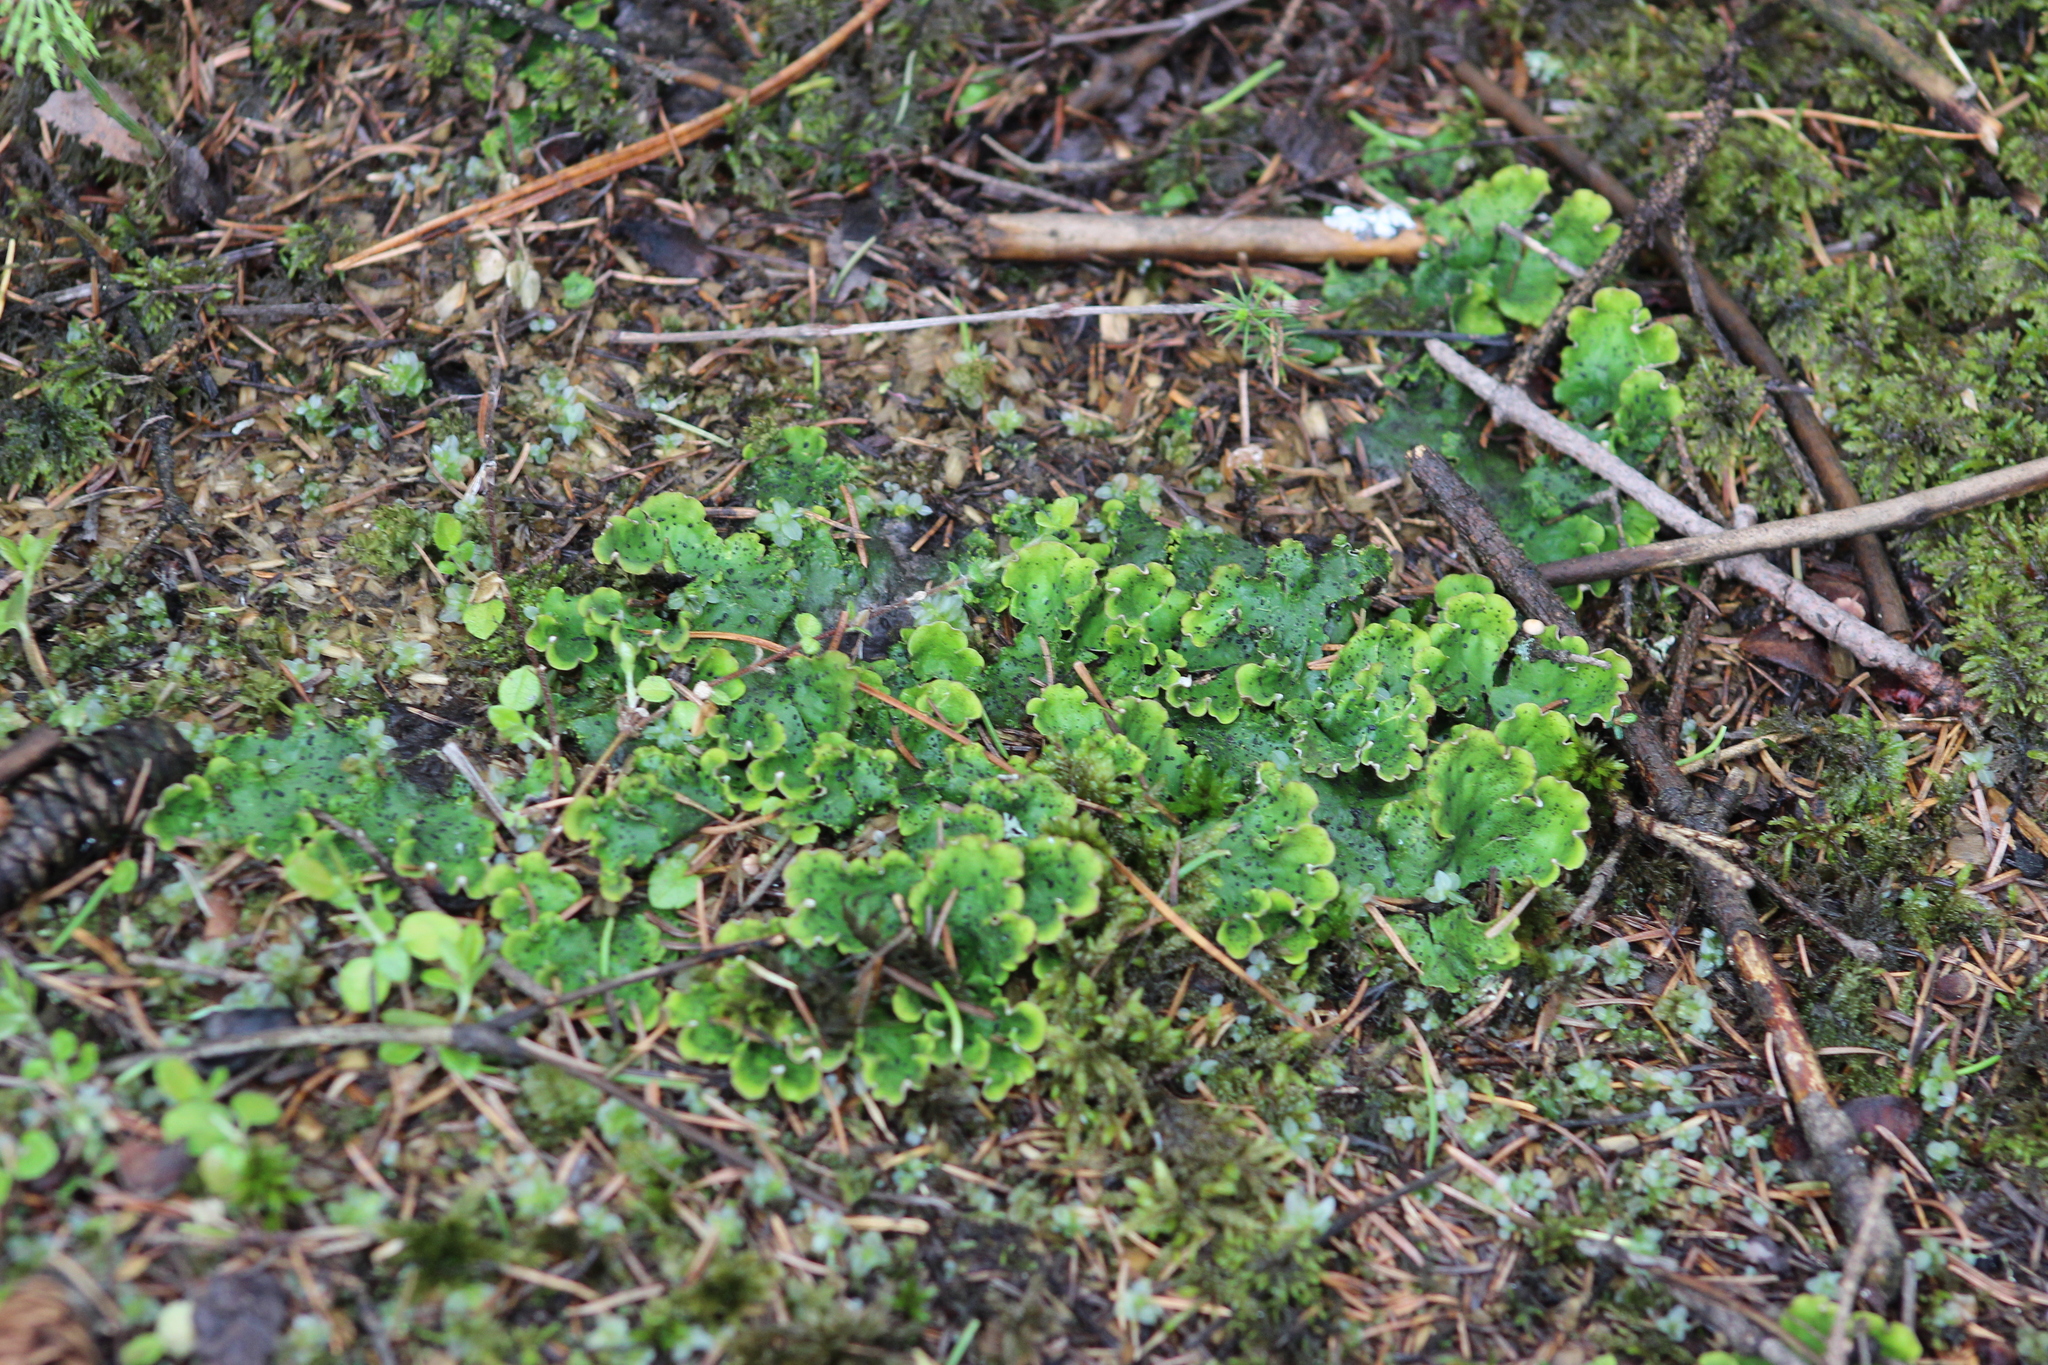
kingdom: Fungi
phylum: Ascomycota
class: Lecanoromycetes
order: Peltigerales
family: Peltigeraceae
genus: Peltigera
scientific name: Peltigera aphthosa
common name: Common freckle pelt lichen
